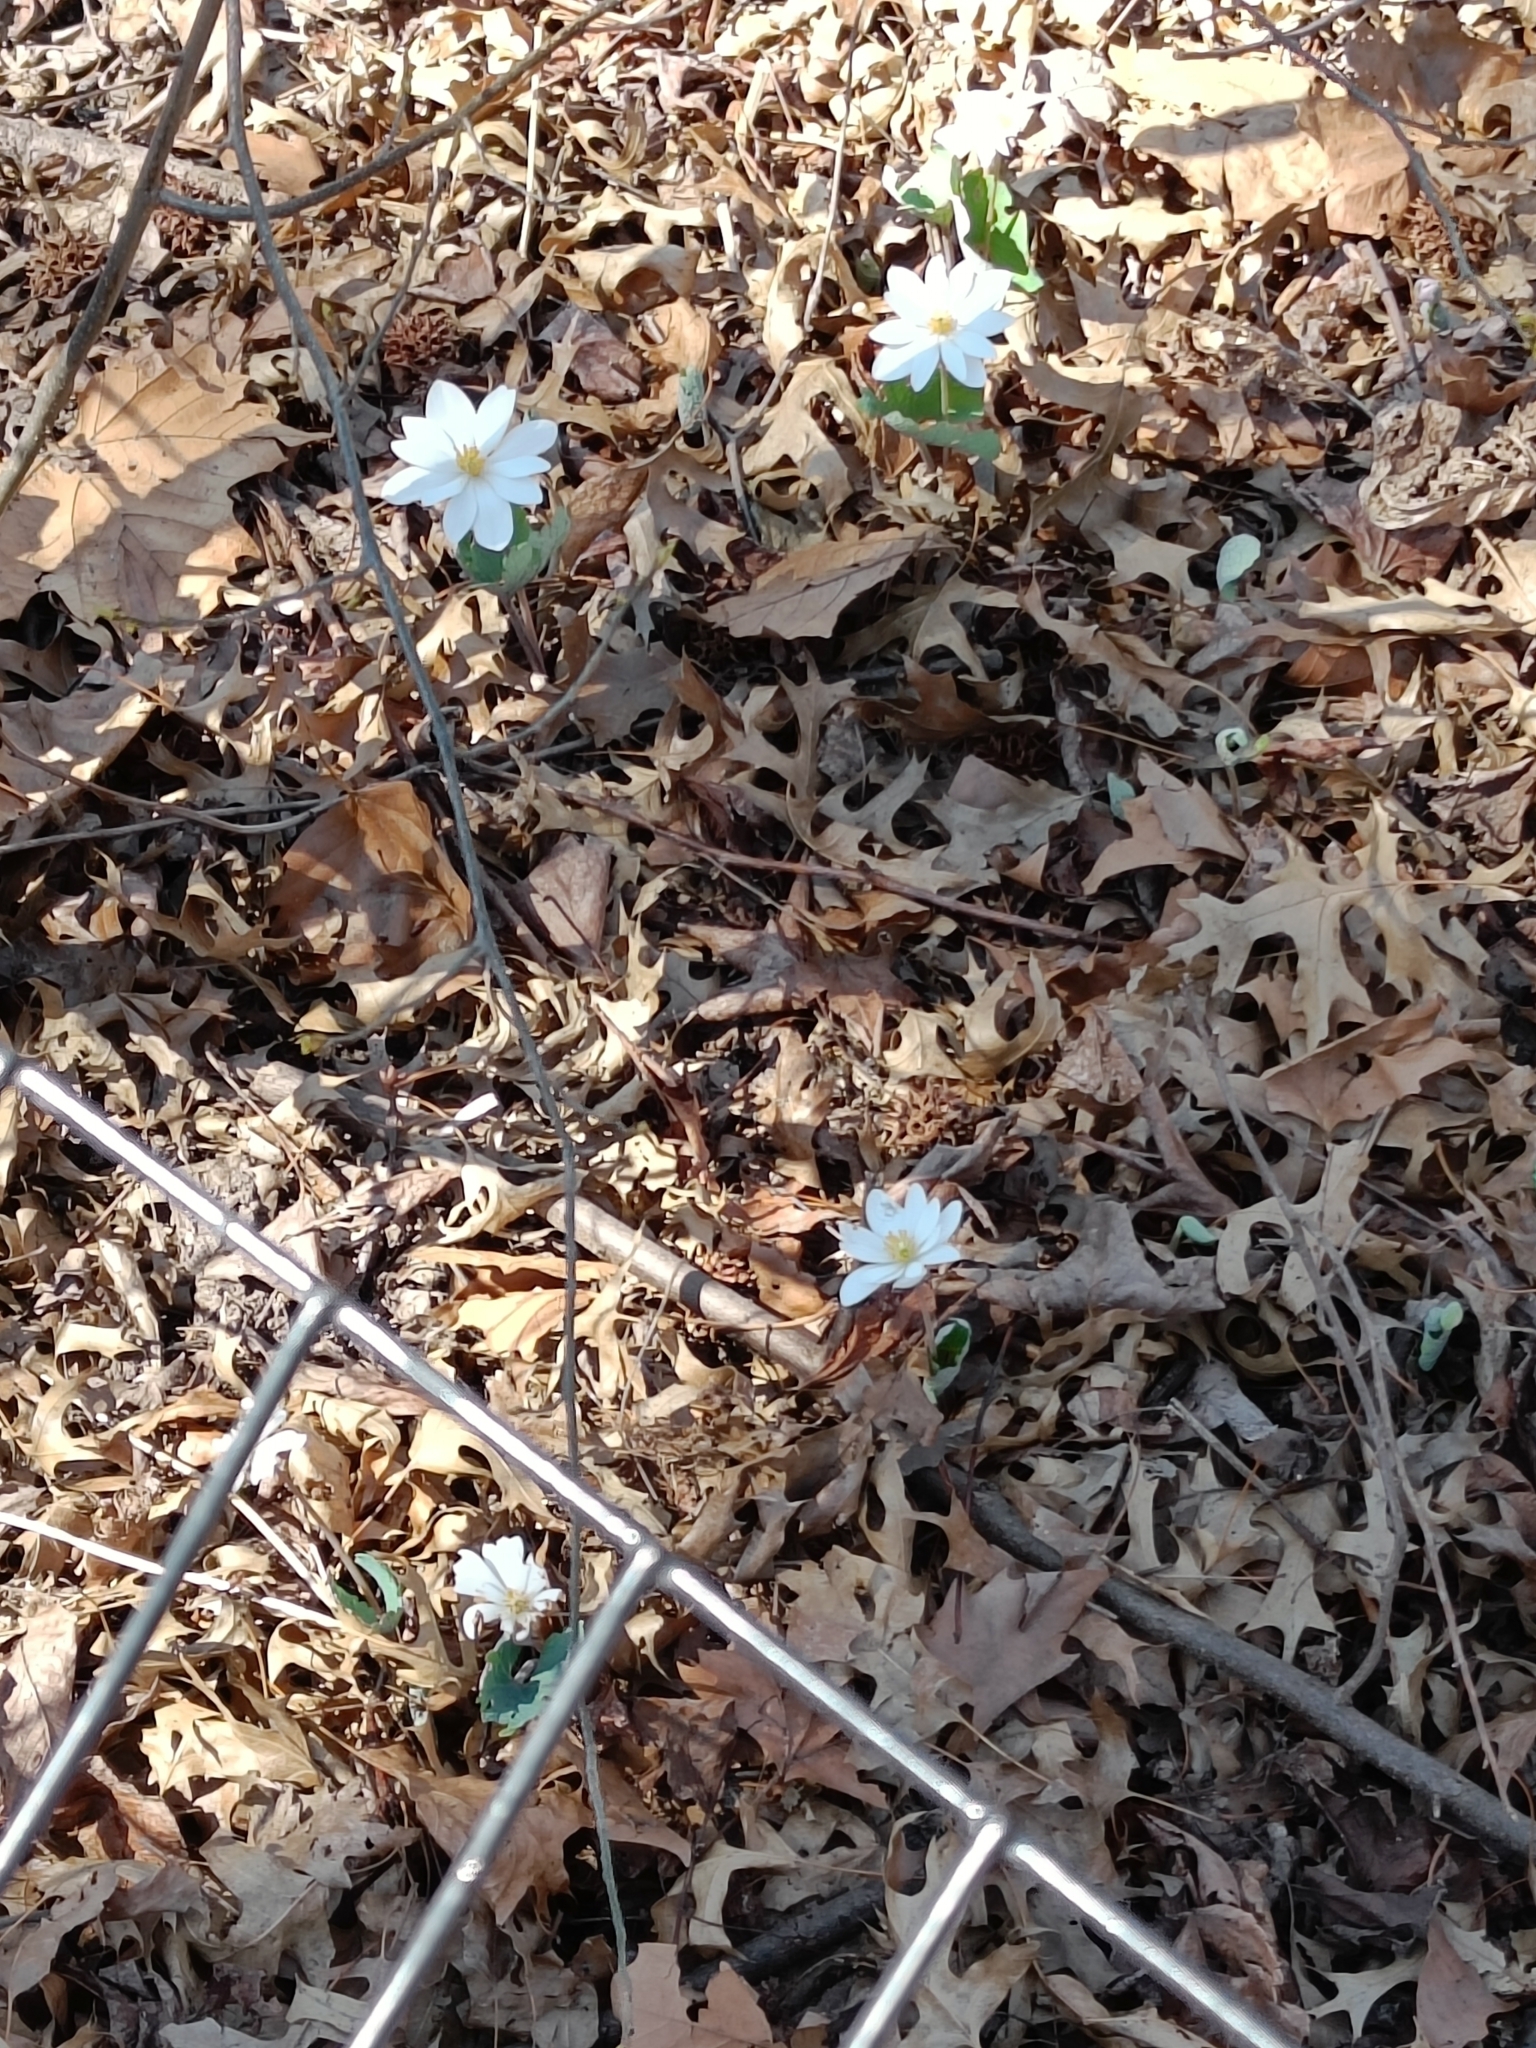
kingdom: Plantae
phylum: Tracheophyta
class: Magnoliopsida
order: Ranunculales
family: Papaveraceae
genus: Sanguinaria
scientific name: Sanguinaria canadensis
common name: Bloodroot
